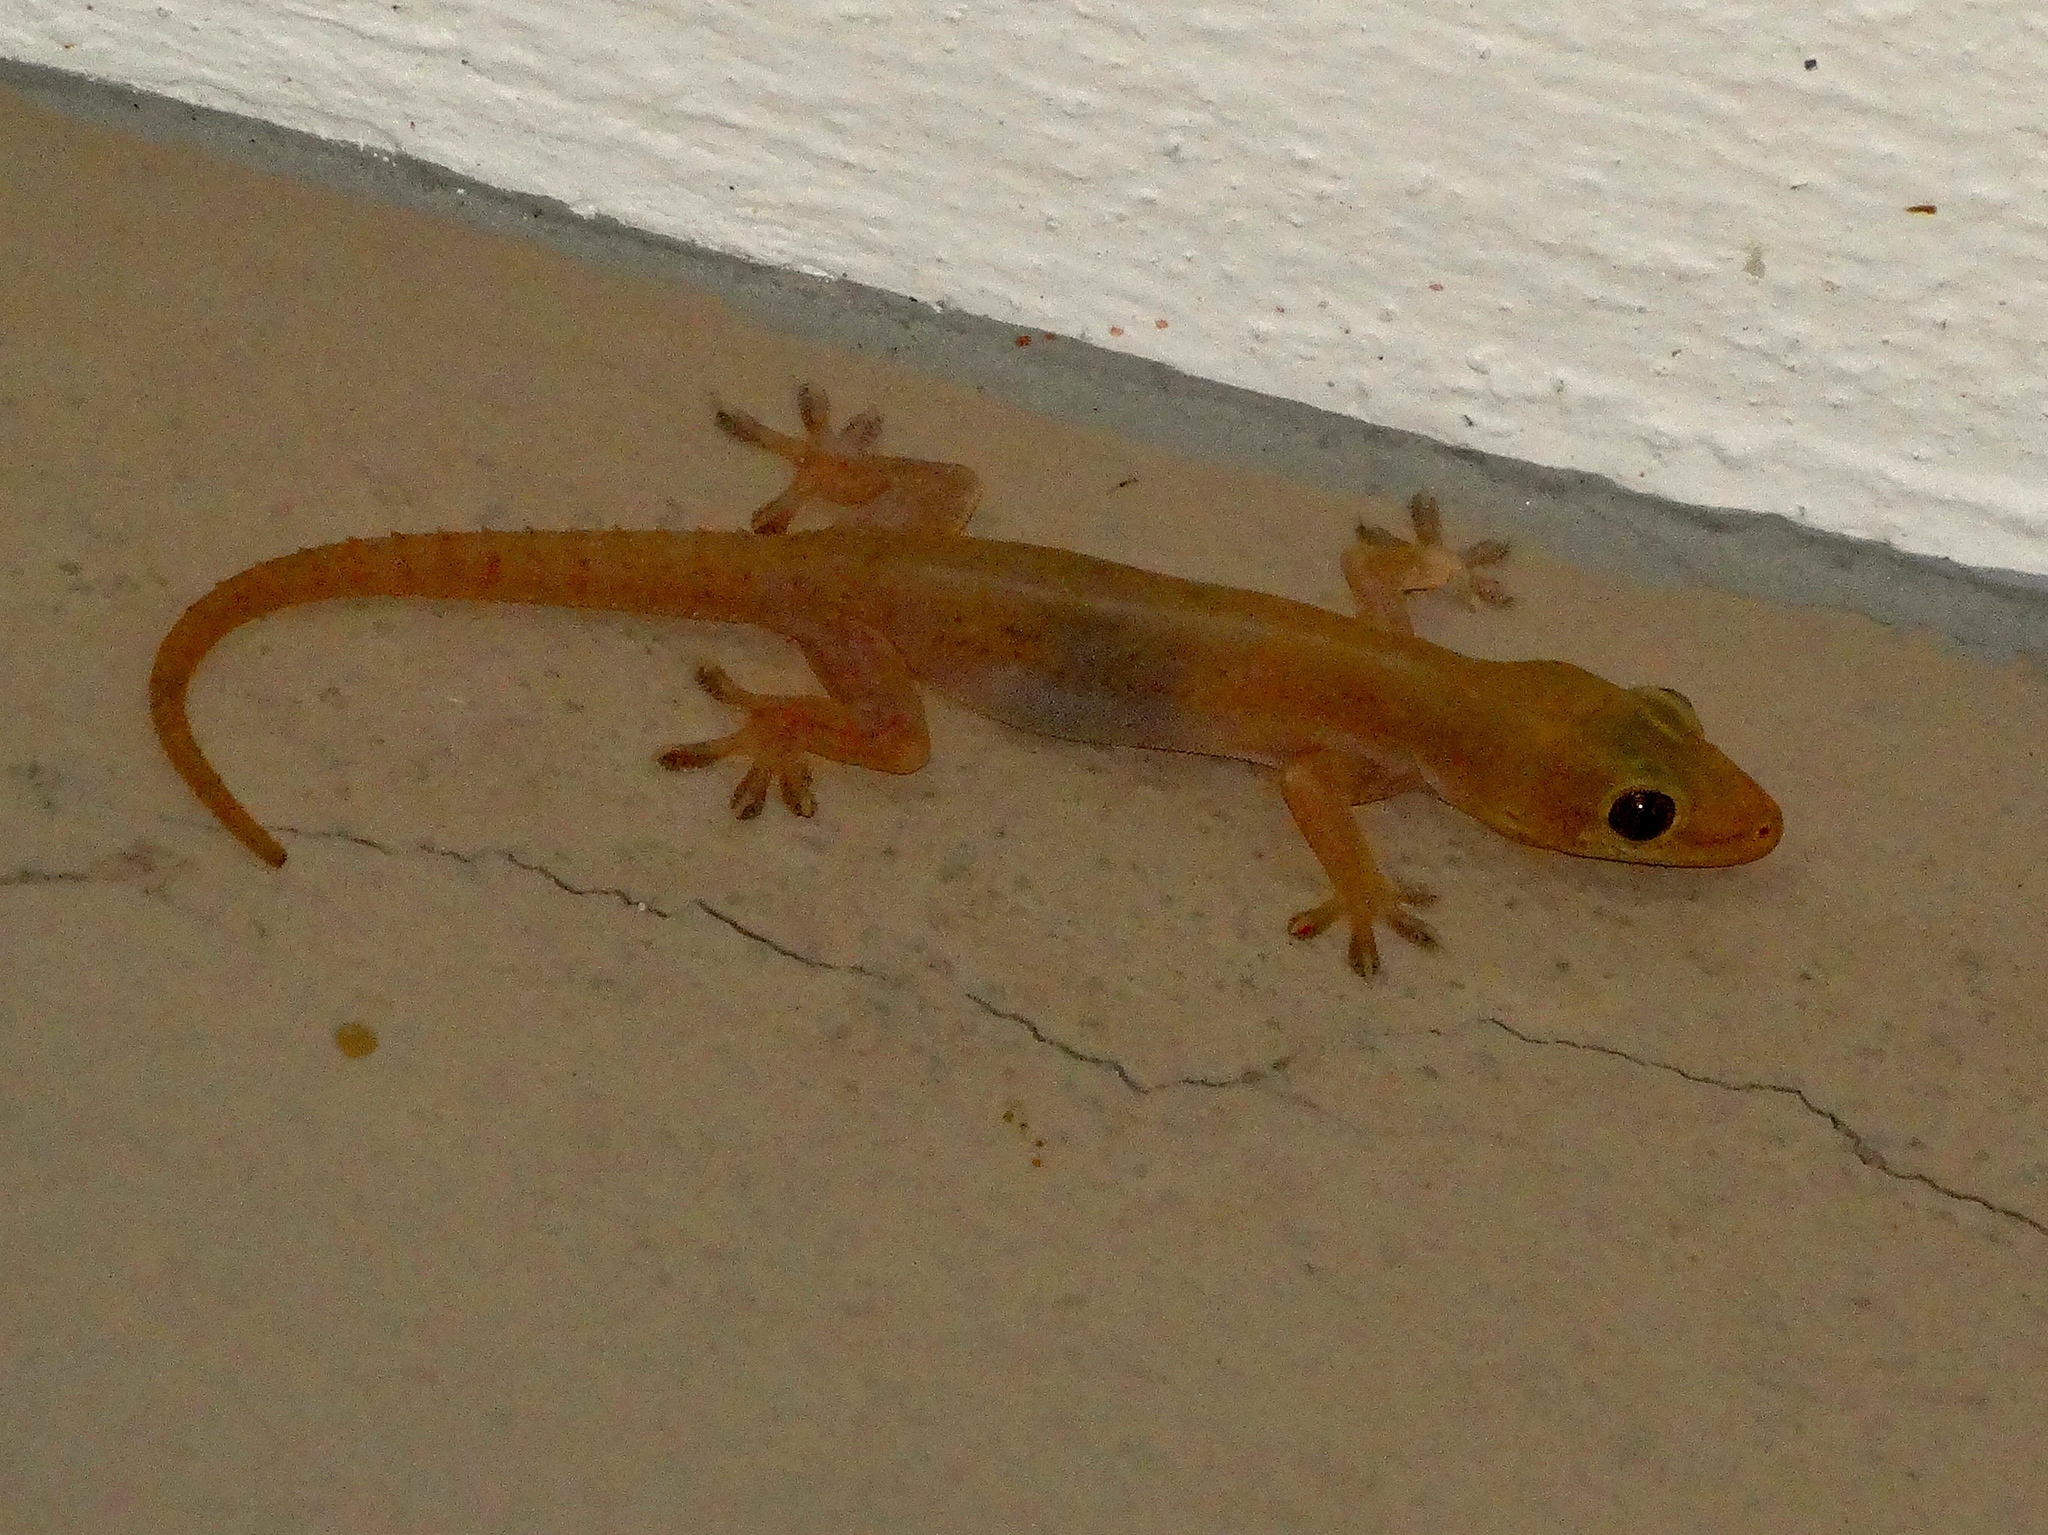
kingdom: Animalia
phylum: Chordata
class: Squamata
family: Gekkonidae
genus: Hemidactylus
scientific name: Hemidactylus frenatus
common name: Common house gecko
